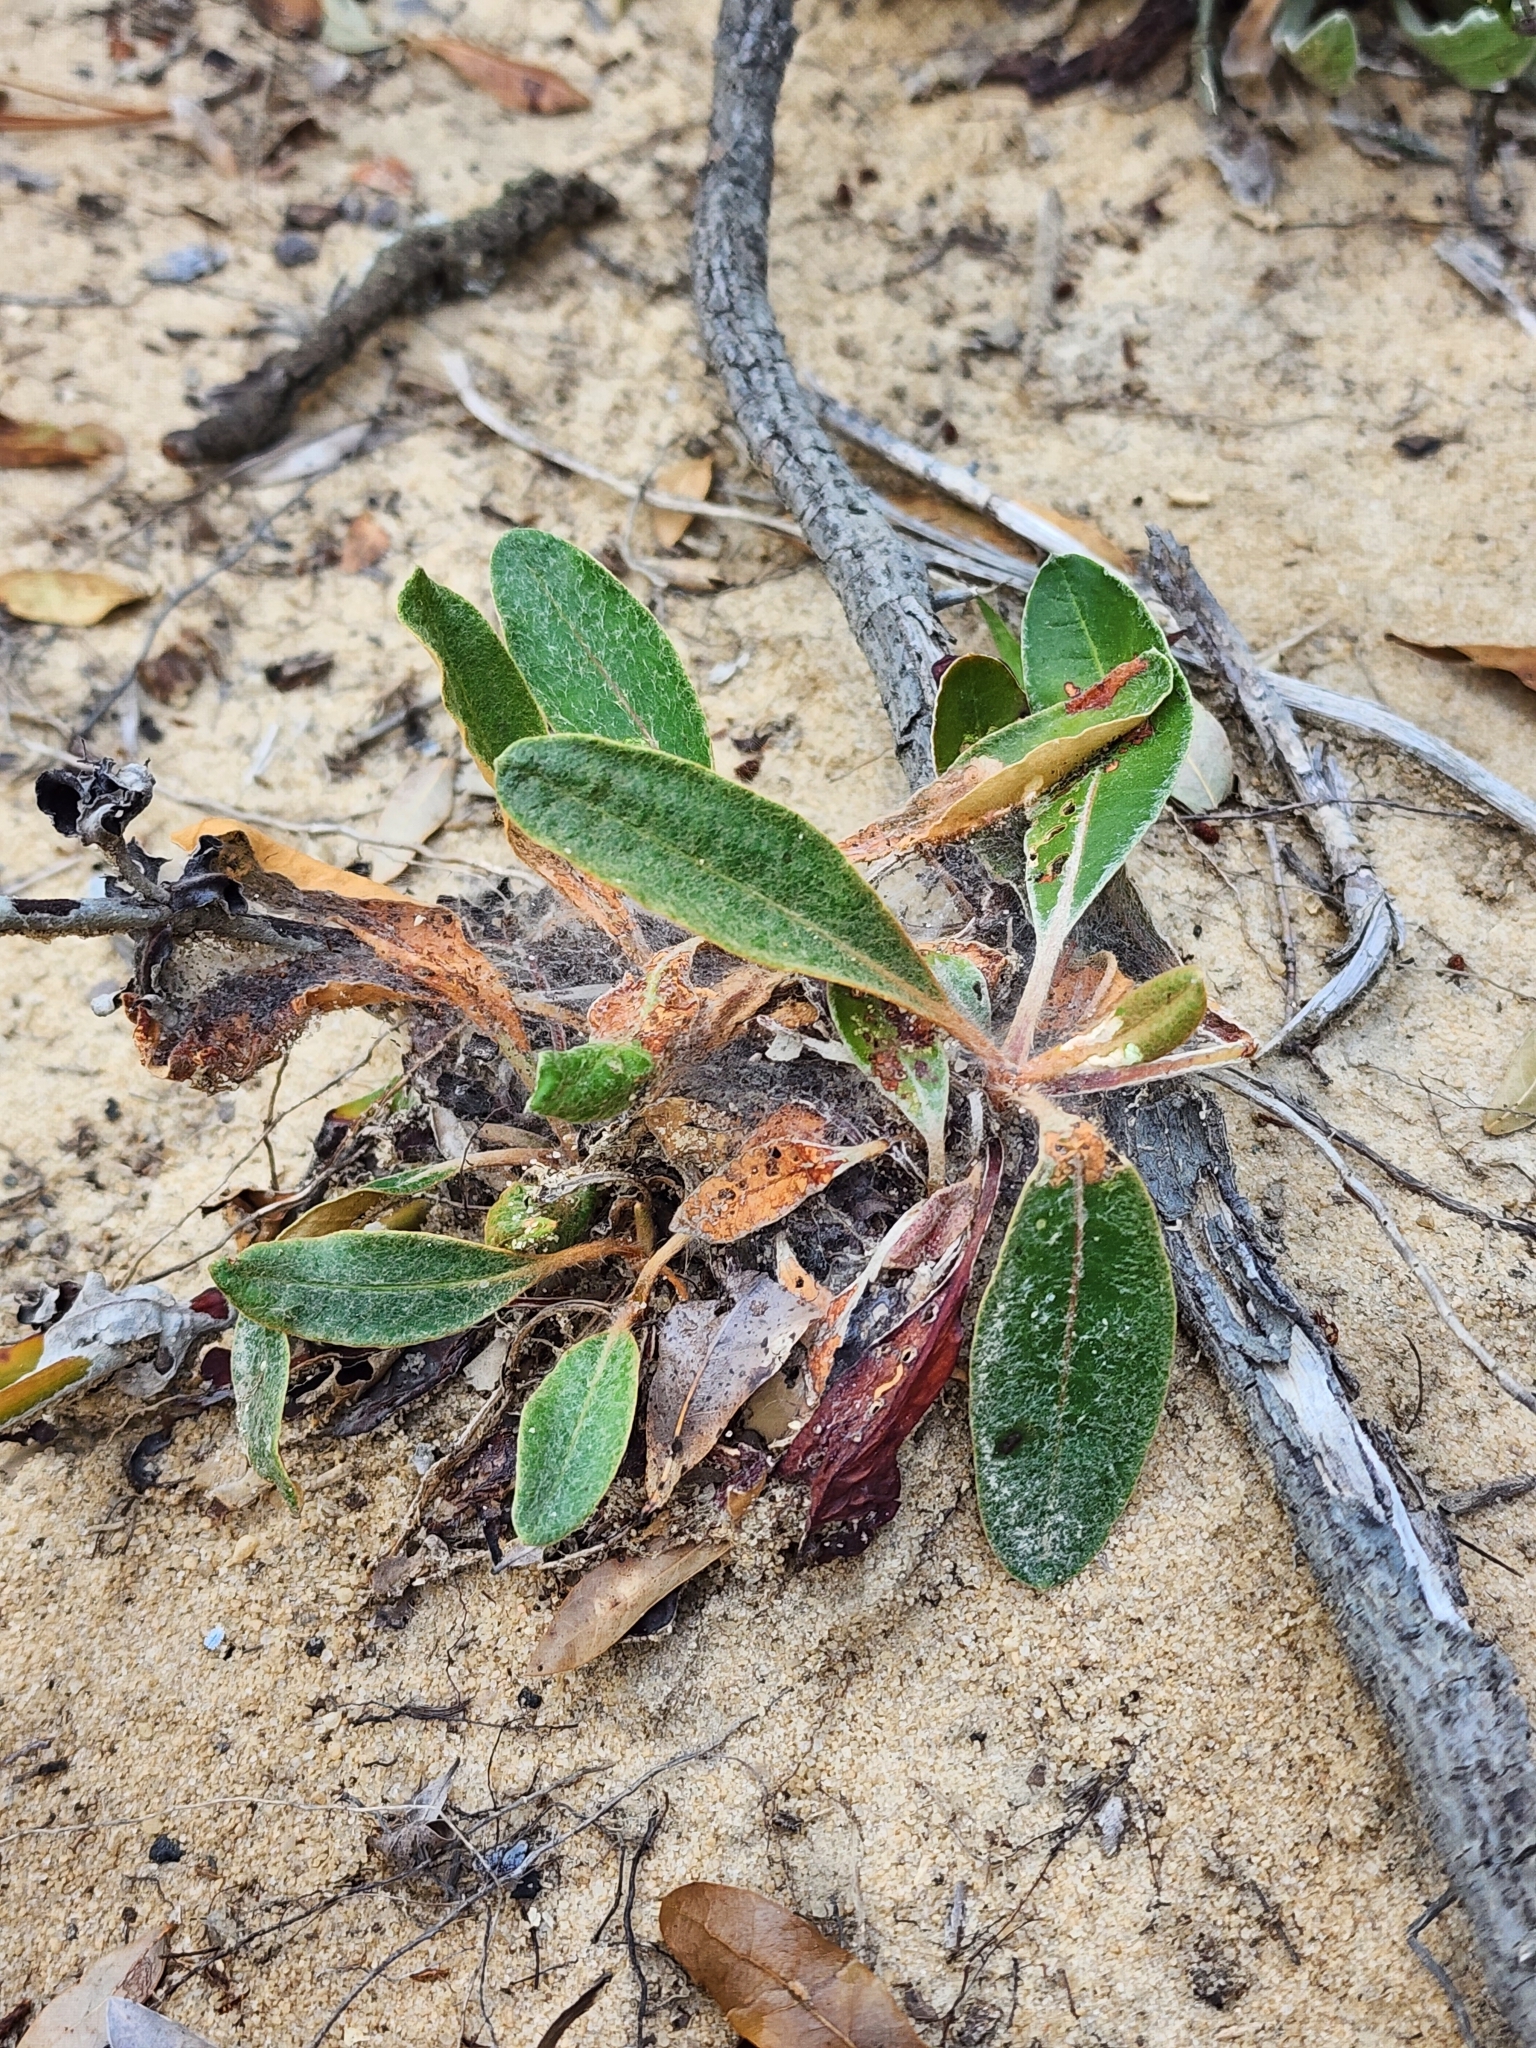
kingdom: Plantae
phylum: Tracheophyta
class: Magnoliopsida
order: Caryophyllales
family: Polygonaceae
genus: Eriogonum
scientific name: Eriogonum tomentosum
